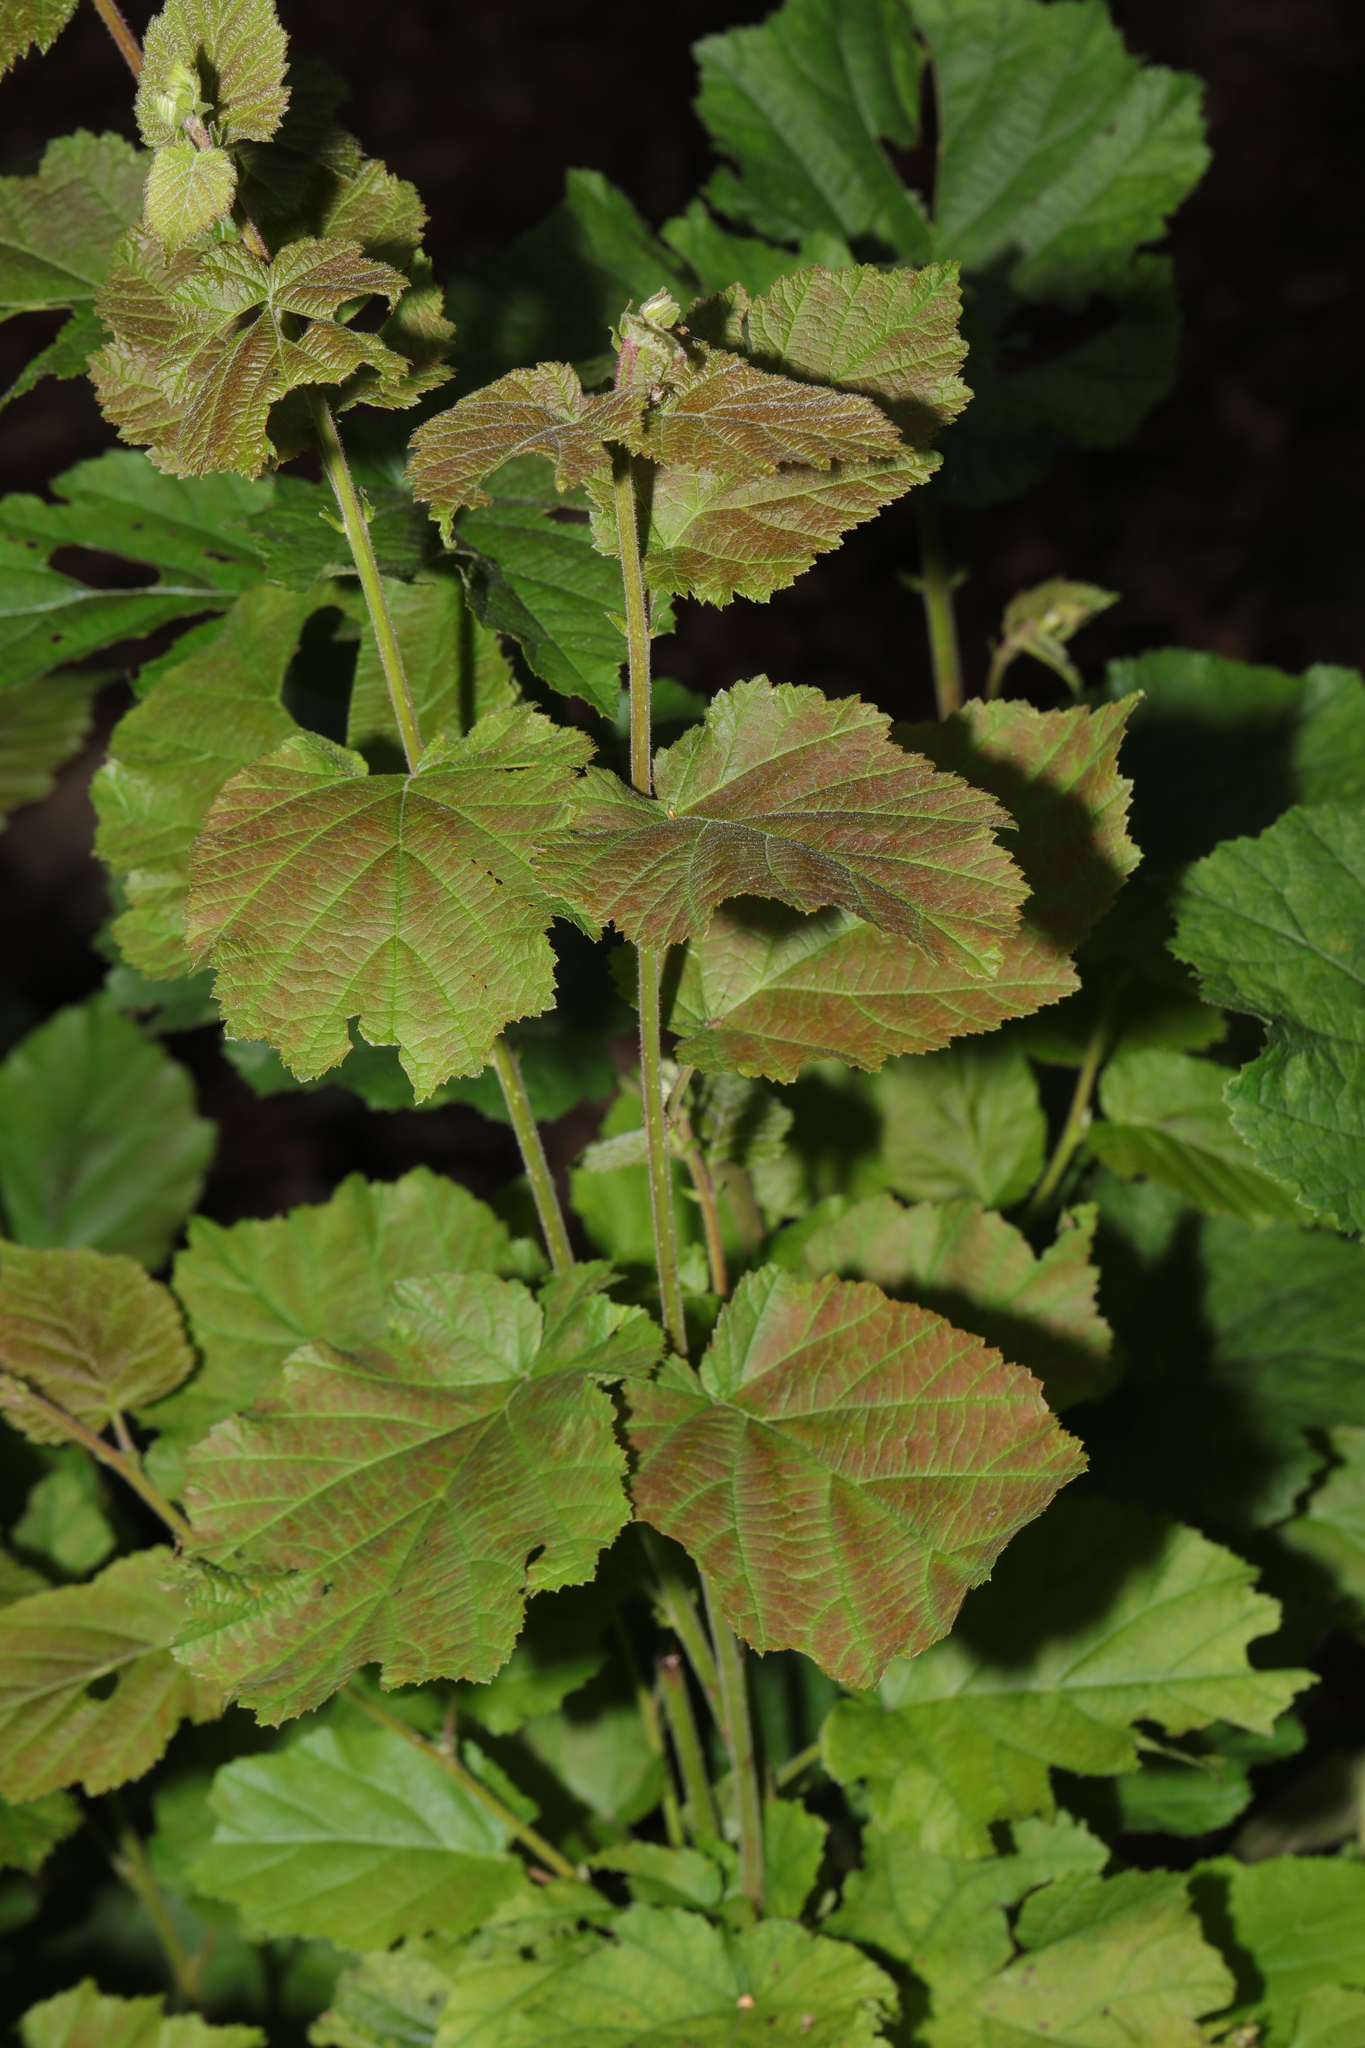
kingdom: Plantae
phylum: Tracheophyta
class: Magnoliopsida
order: Fagales
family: Betulaceae
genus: Corylus
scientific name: Corylus avellana
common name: European hazel
